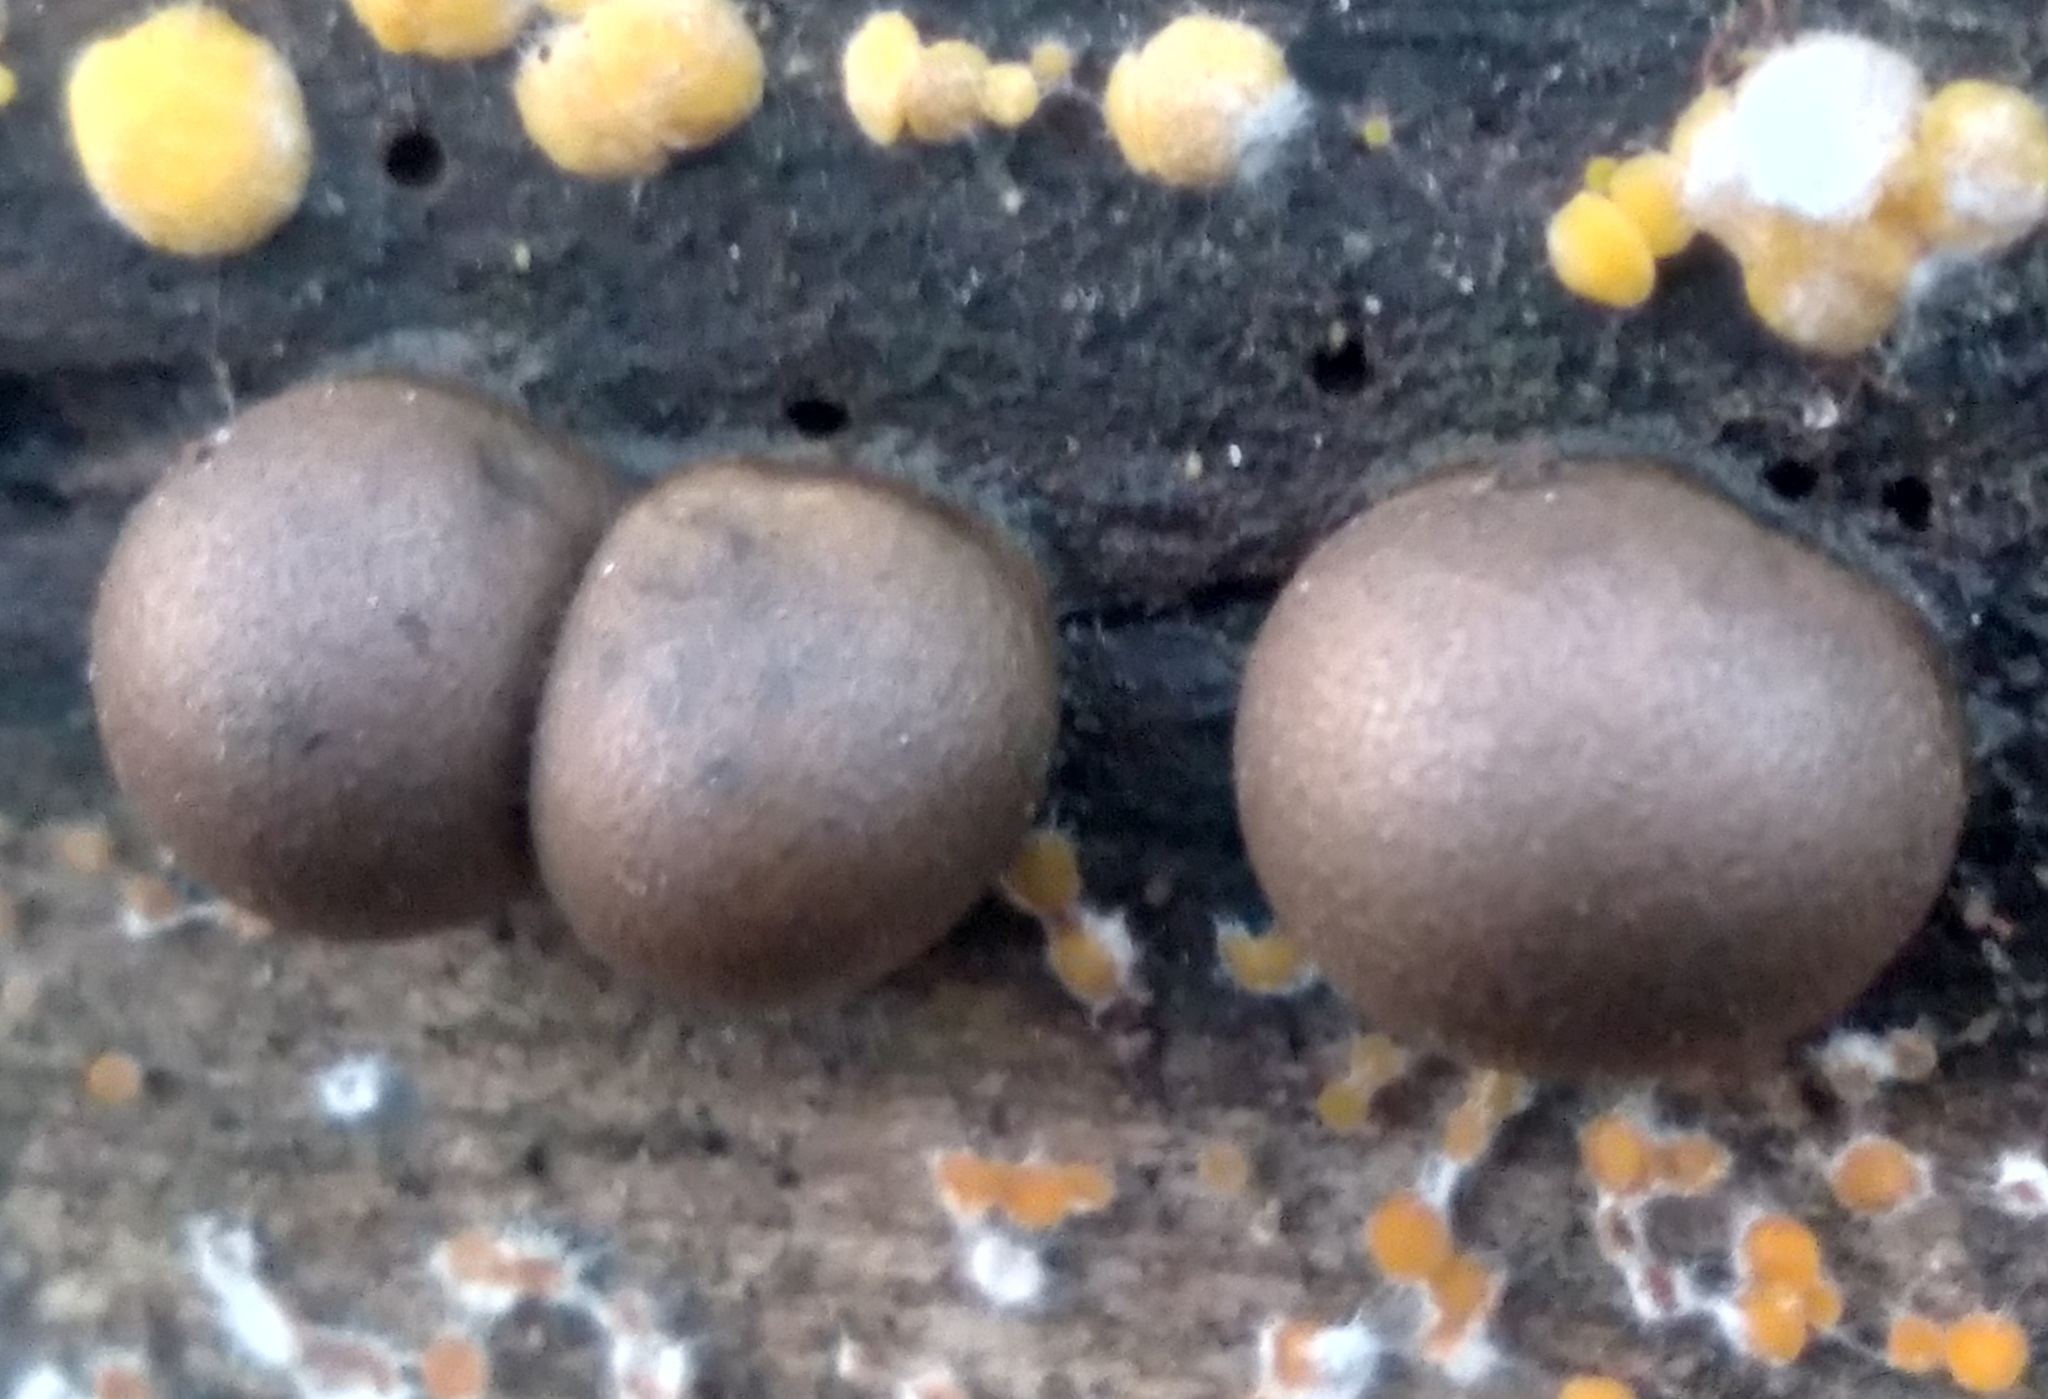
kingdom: Protozoa
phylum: Mycetozoa
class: Myxomycetes
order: Cribrariales
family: Tubiferaceae
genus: Lycogala
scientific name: Lycogala epidendrum
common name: Wolf's milk
